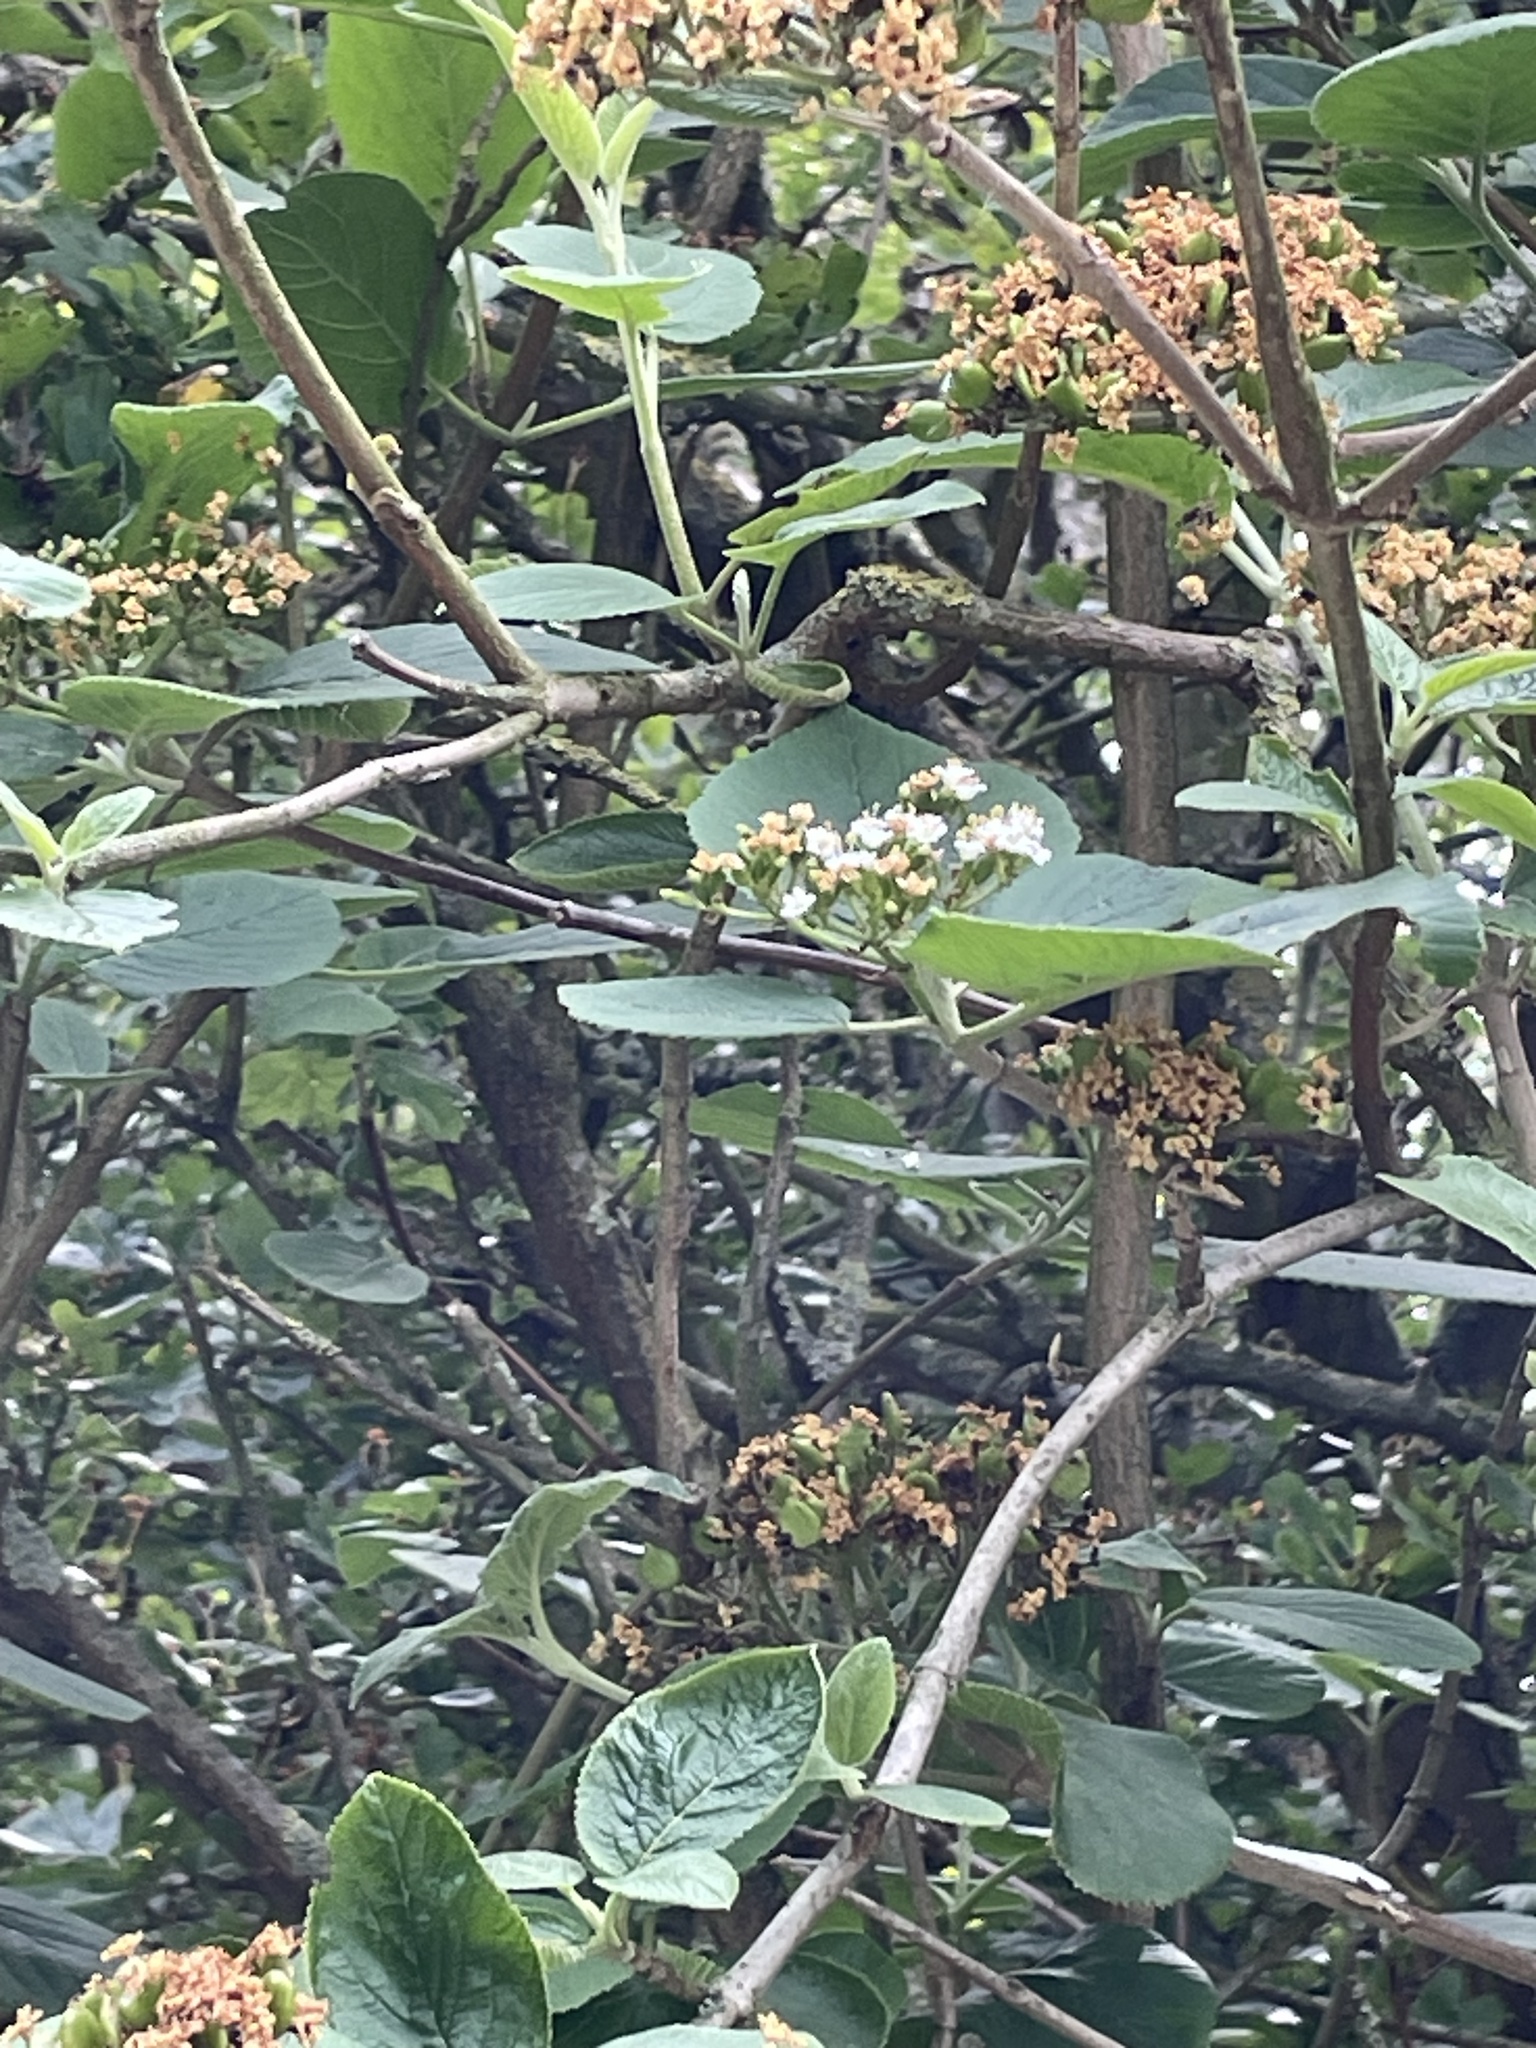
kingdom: Plantae
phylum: Tracheophyta
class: Magnoliopsida
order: Dipsacales
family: Viburnaceae
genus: Viburnum
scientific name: Viburnum lantana
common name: Wayfaring tree
